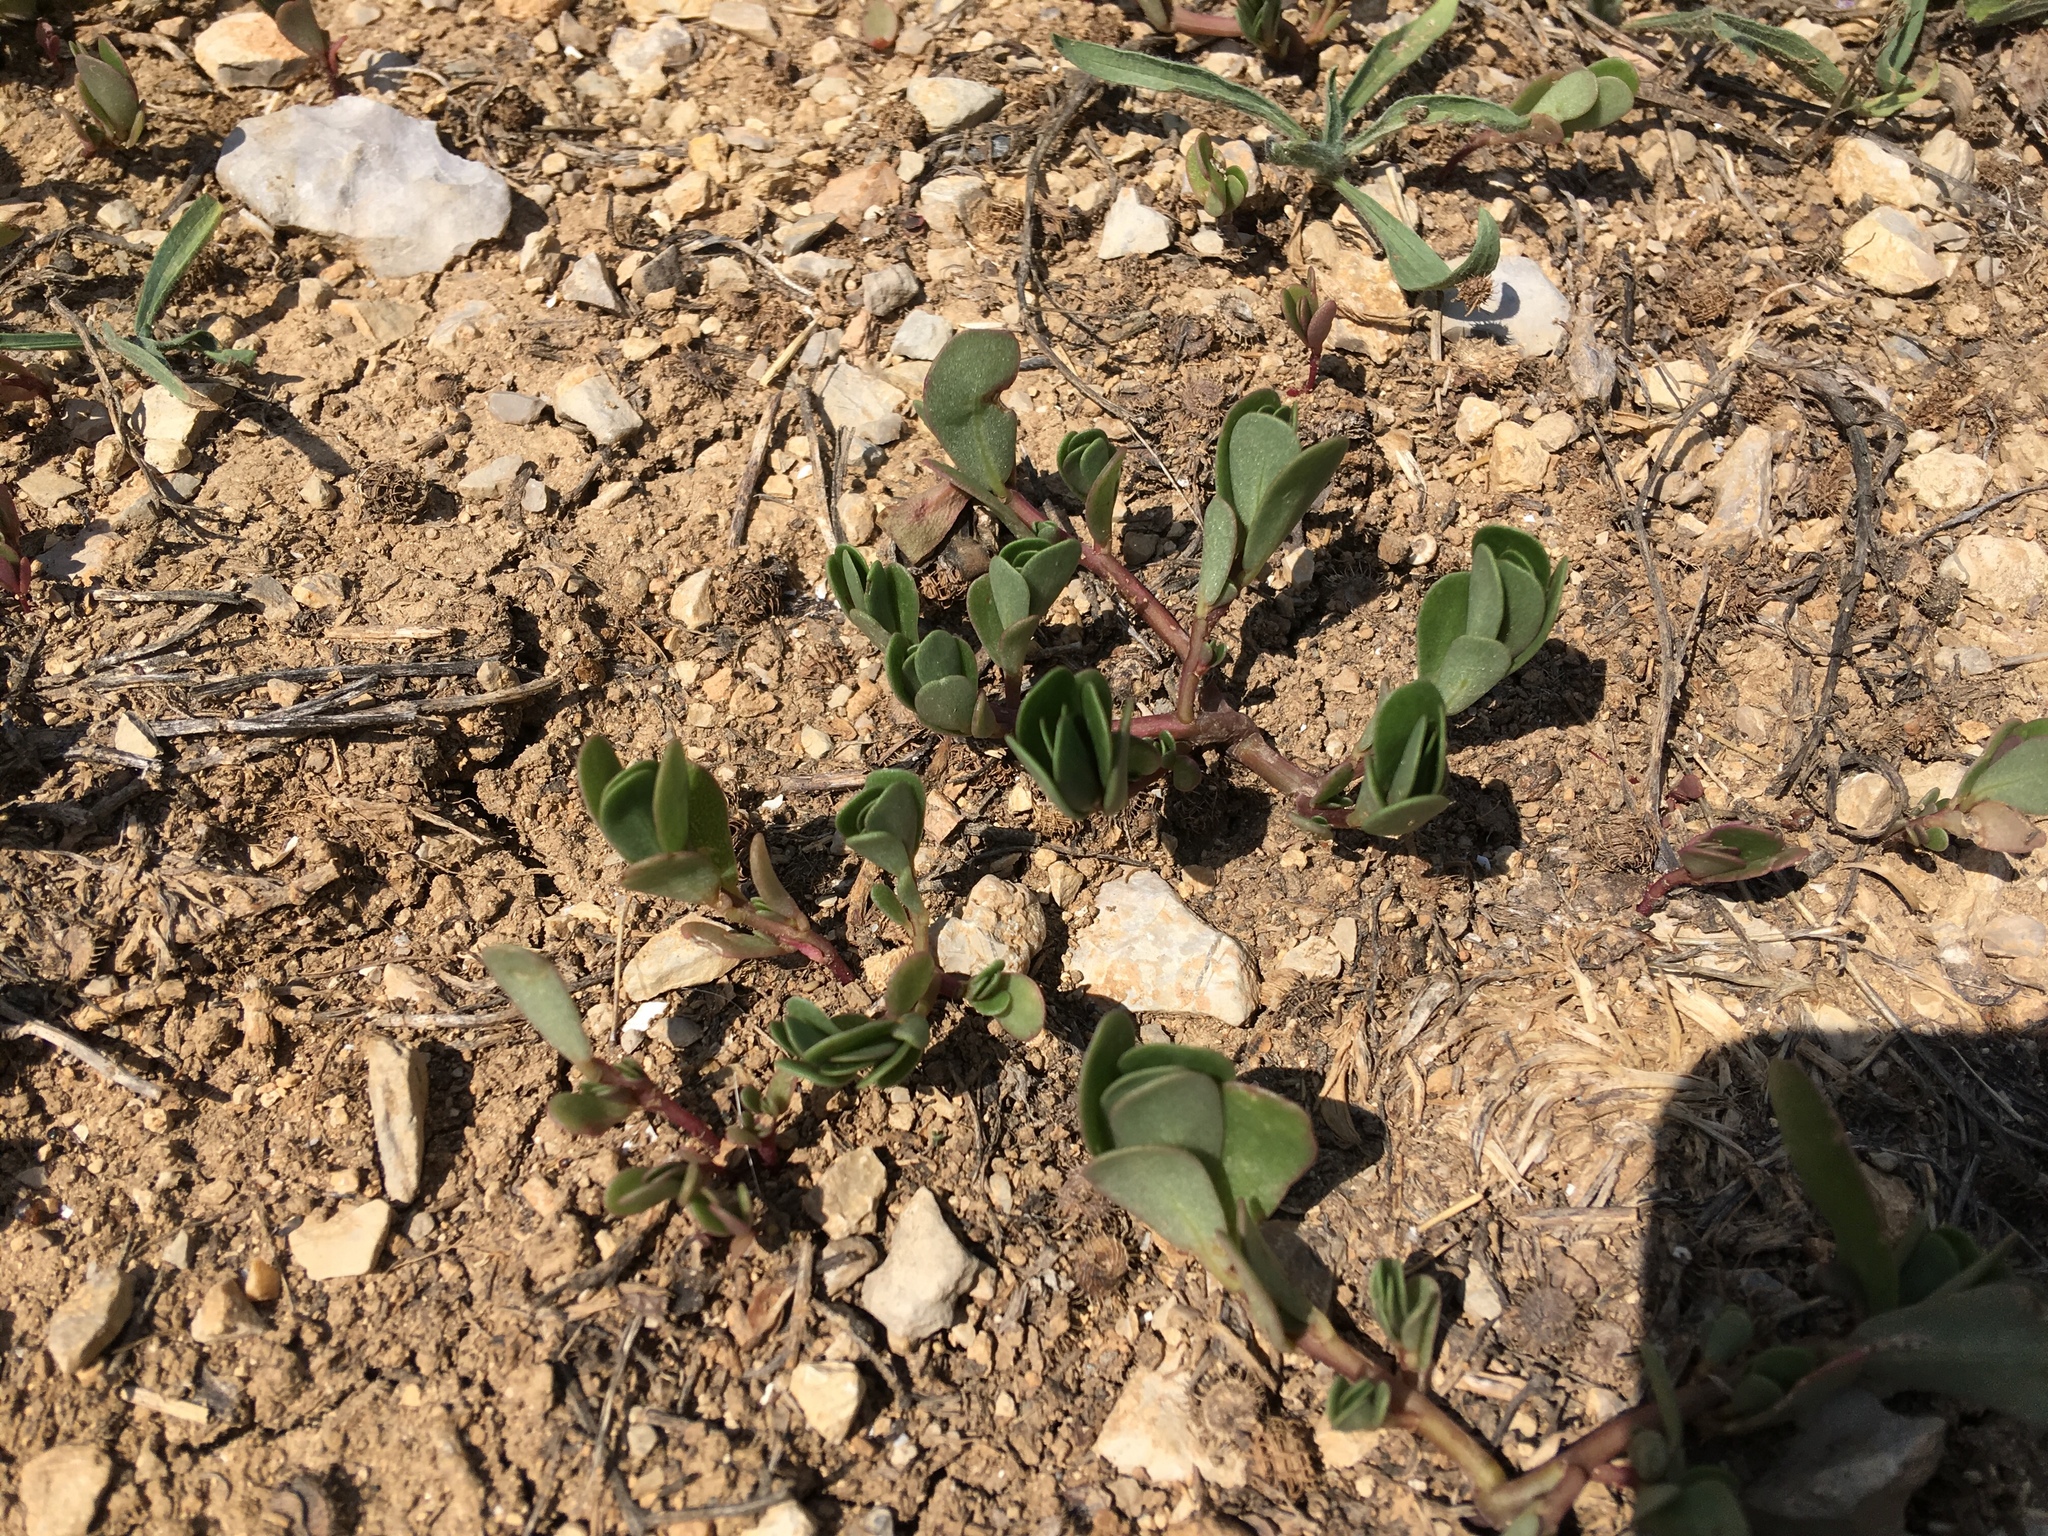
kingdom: Plantae
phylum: Tracheophyta
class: Magnoliopsida
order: Caryophyllales
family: Portulacaceae
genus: Portulaca
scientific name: Portulaca oleracea
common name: Common purslane
